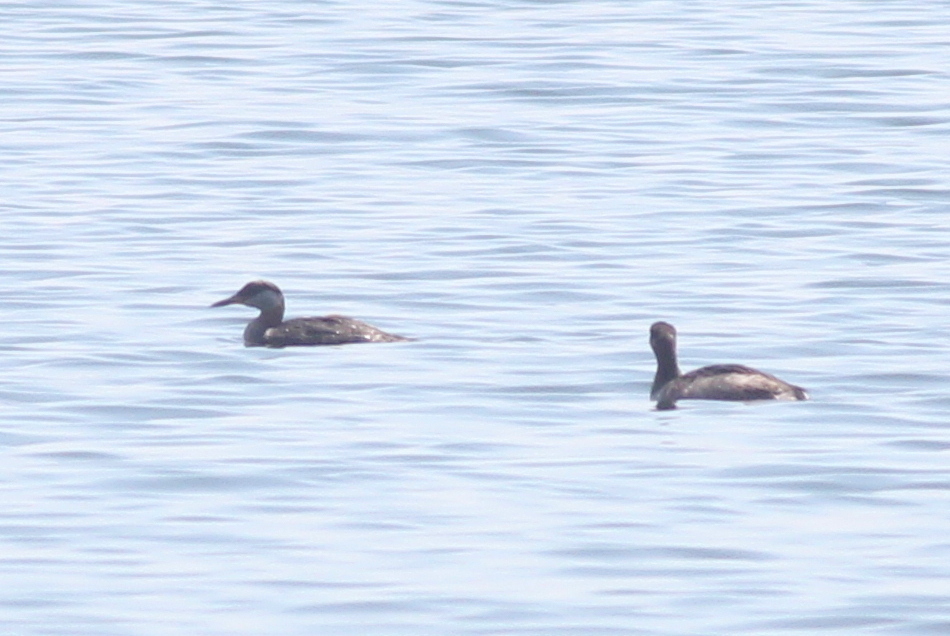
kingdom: Animalia
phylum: Chordata
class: Aves
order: Podicipediformes
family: Podicipedidae
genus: Podiceps
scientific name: Podiceps grisegena
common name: Red-necked grebe
